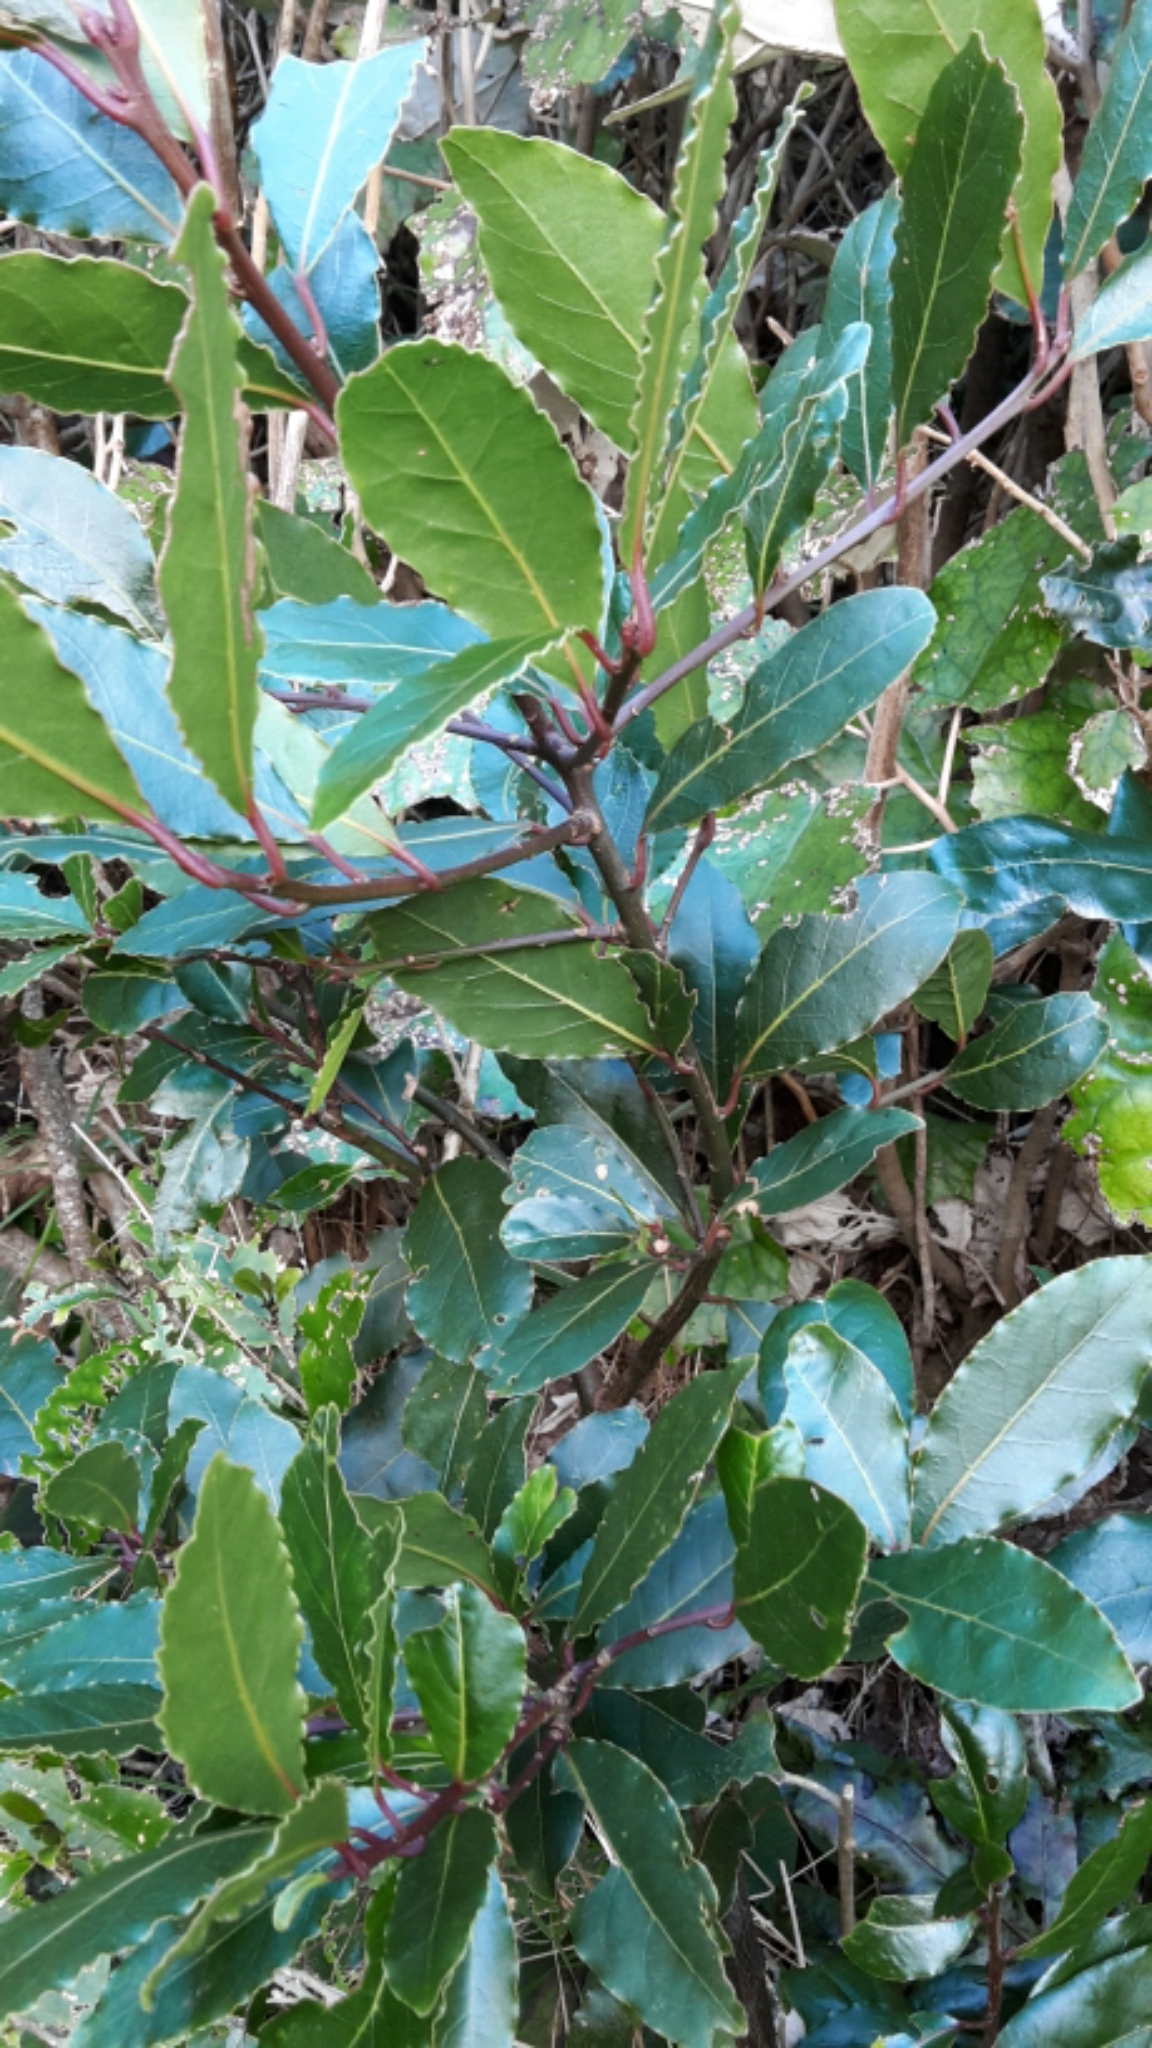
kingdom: Plantae
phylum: Tracheophyta
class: Magnoliopsida
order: Laurales
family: Lauraceae
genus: Laurus
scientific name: Laurus nobilis
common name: Bay
